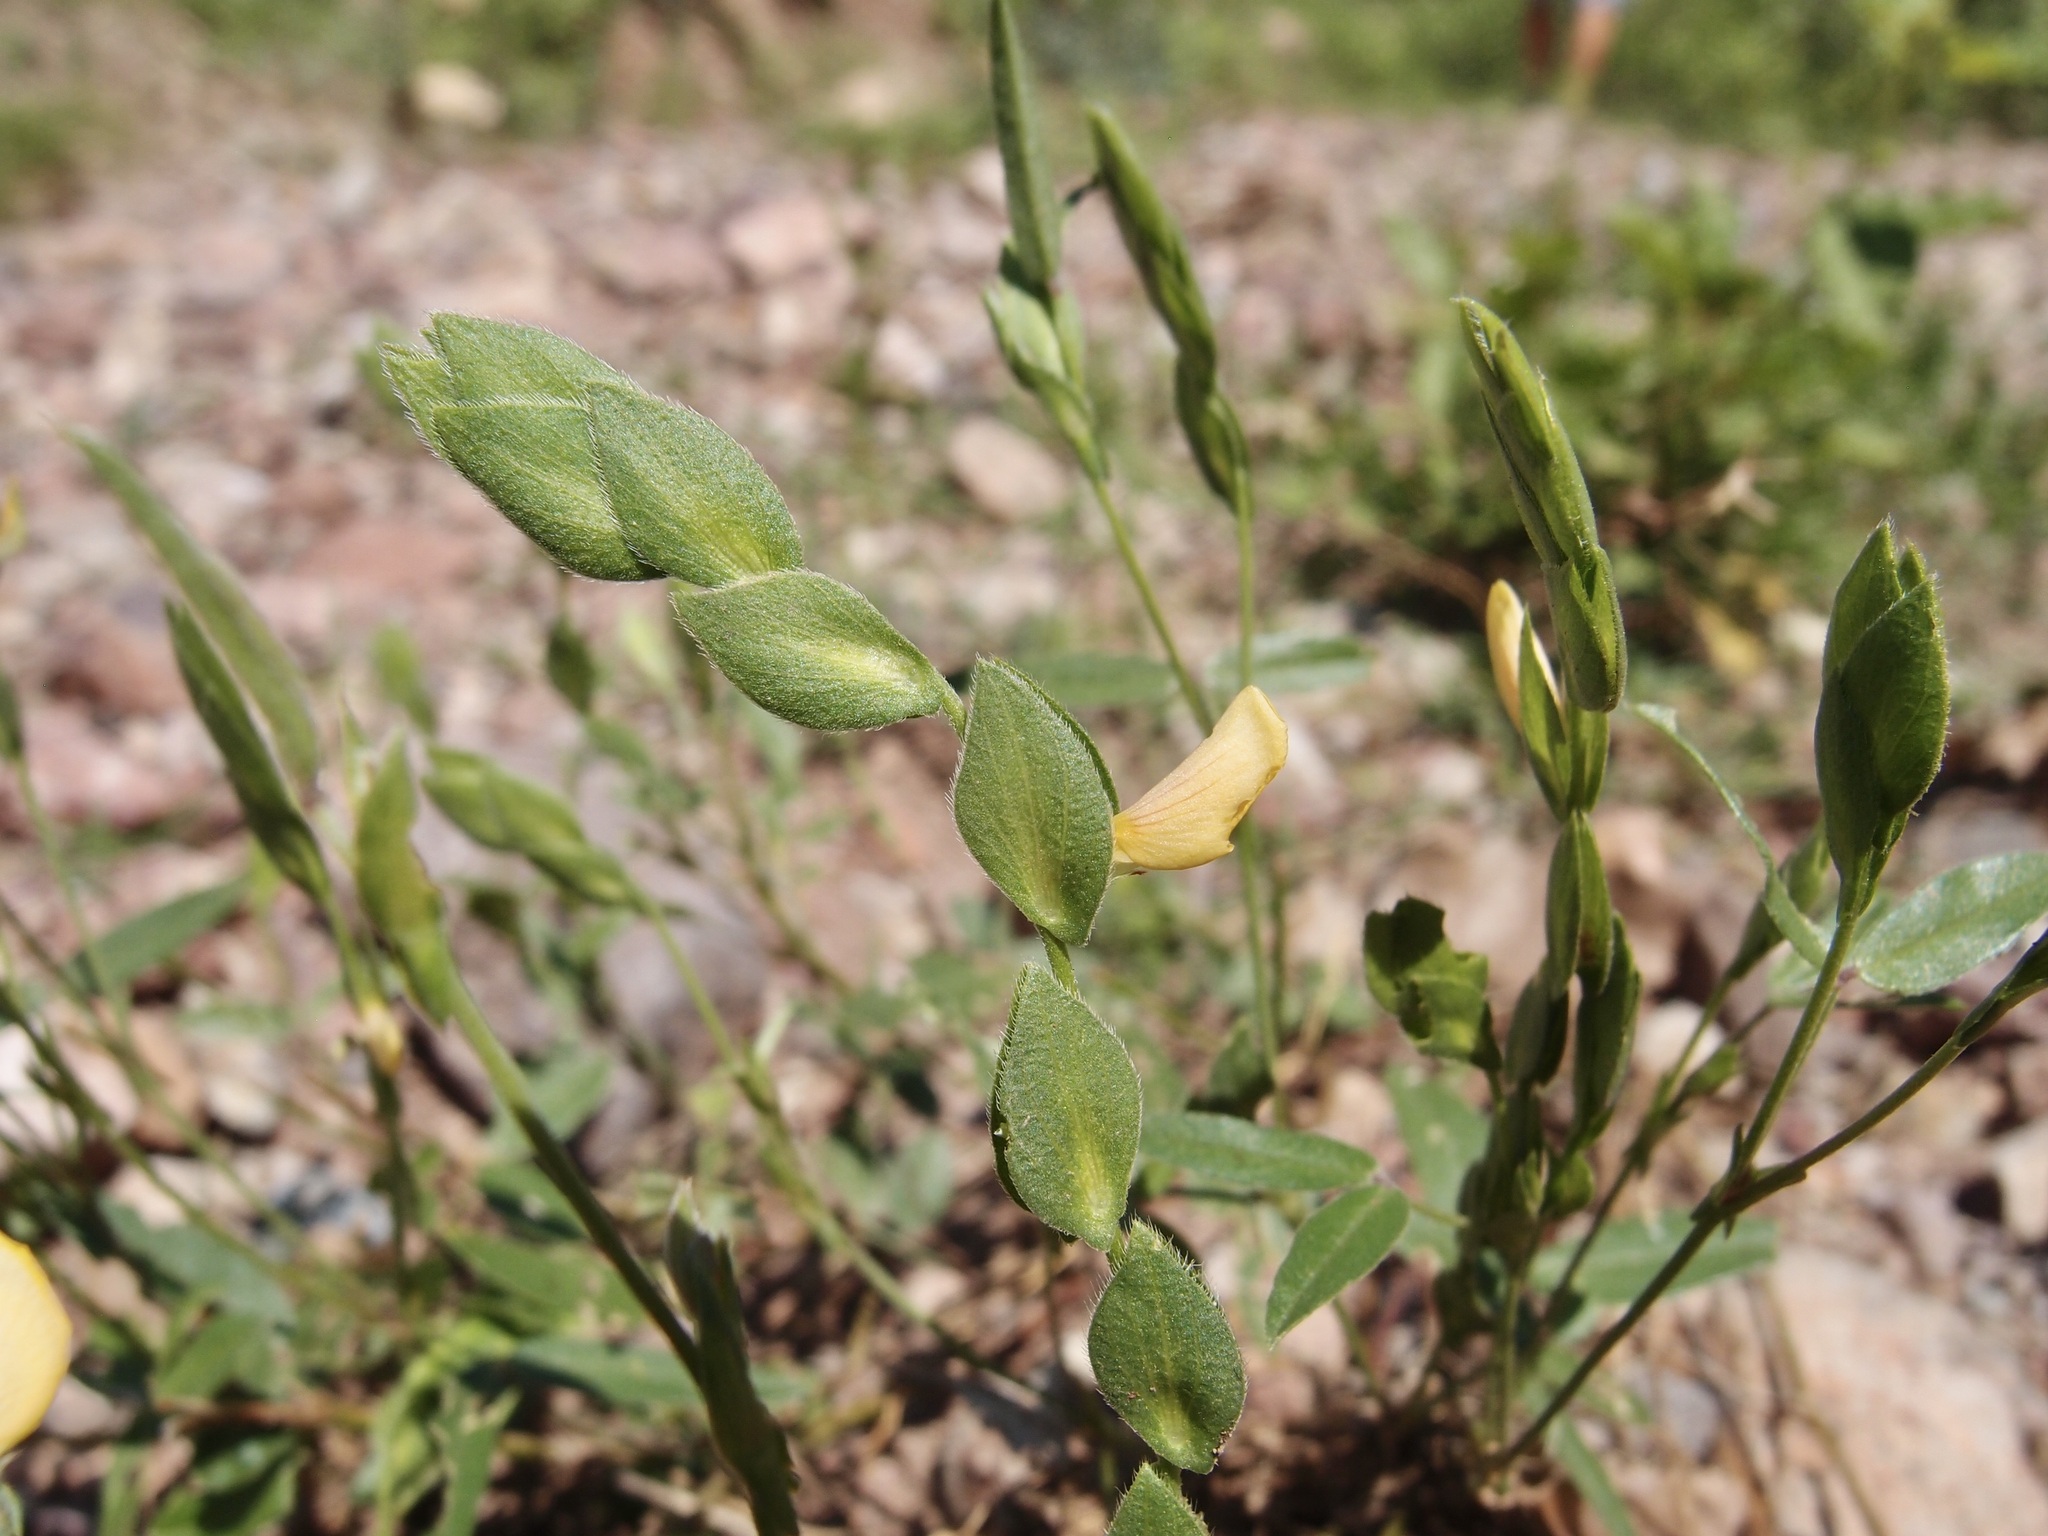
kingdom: Plantae
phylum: Tracheophyta
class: Magnoliopsida
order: Fabales
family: Fabaceae
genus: Zornia
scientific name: Zornia reticulata
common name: Reticulate viperina
